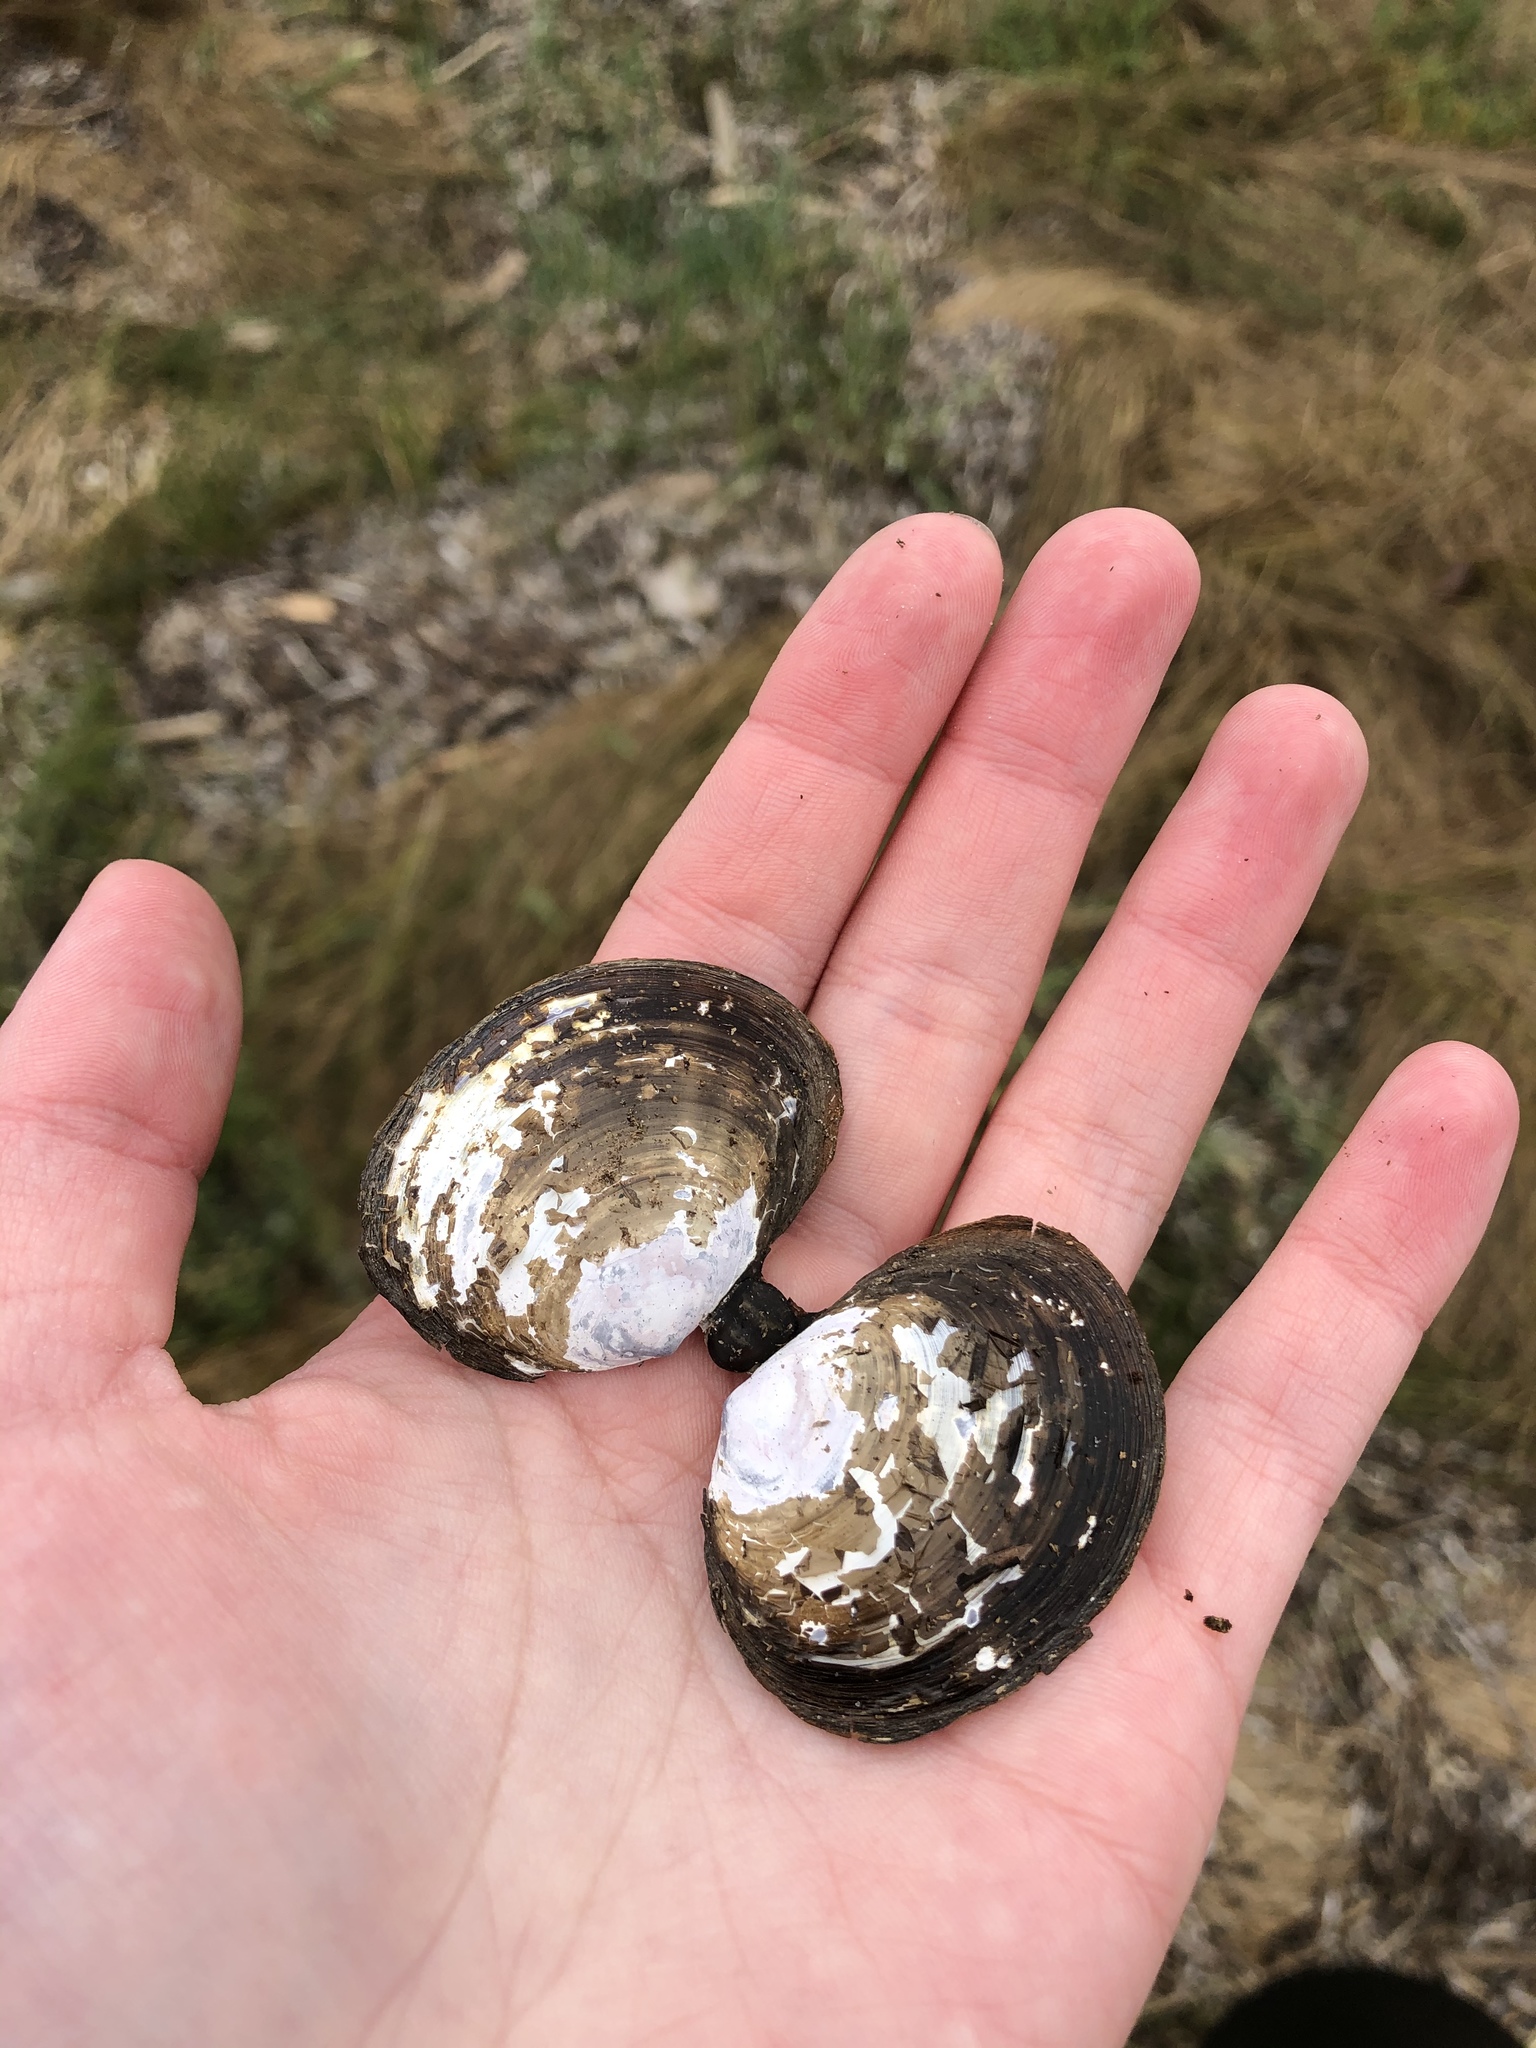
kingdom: Animalia
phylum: Mollusca
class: Bivalvia
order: Cardiida
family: Psammobiidae
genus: Nuttallia
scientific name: Nuttallia obscurata
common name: Purple mahogany-clam
